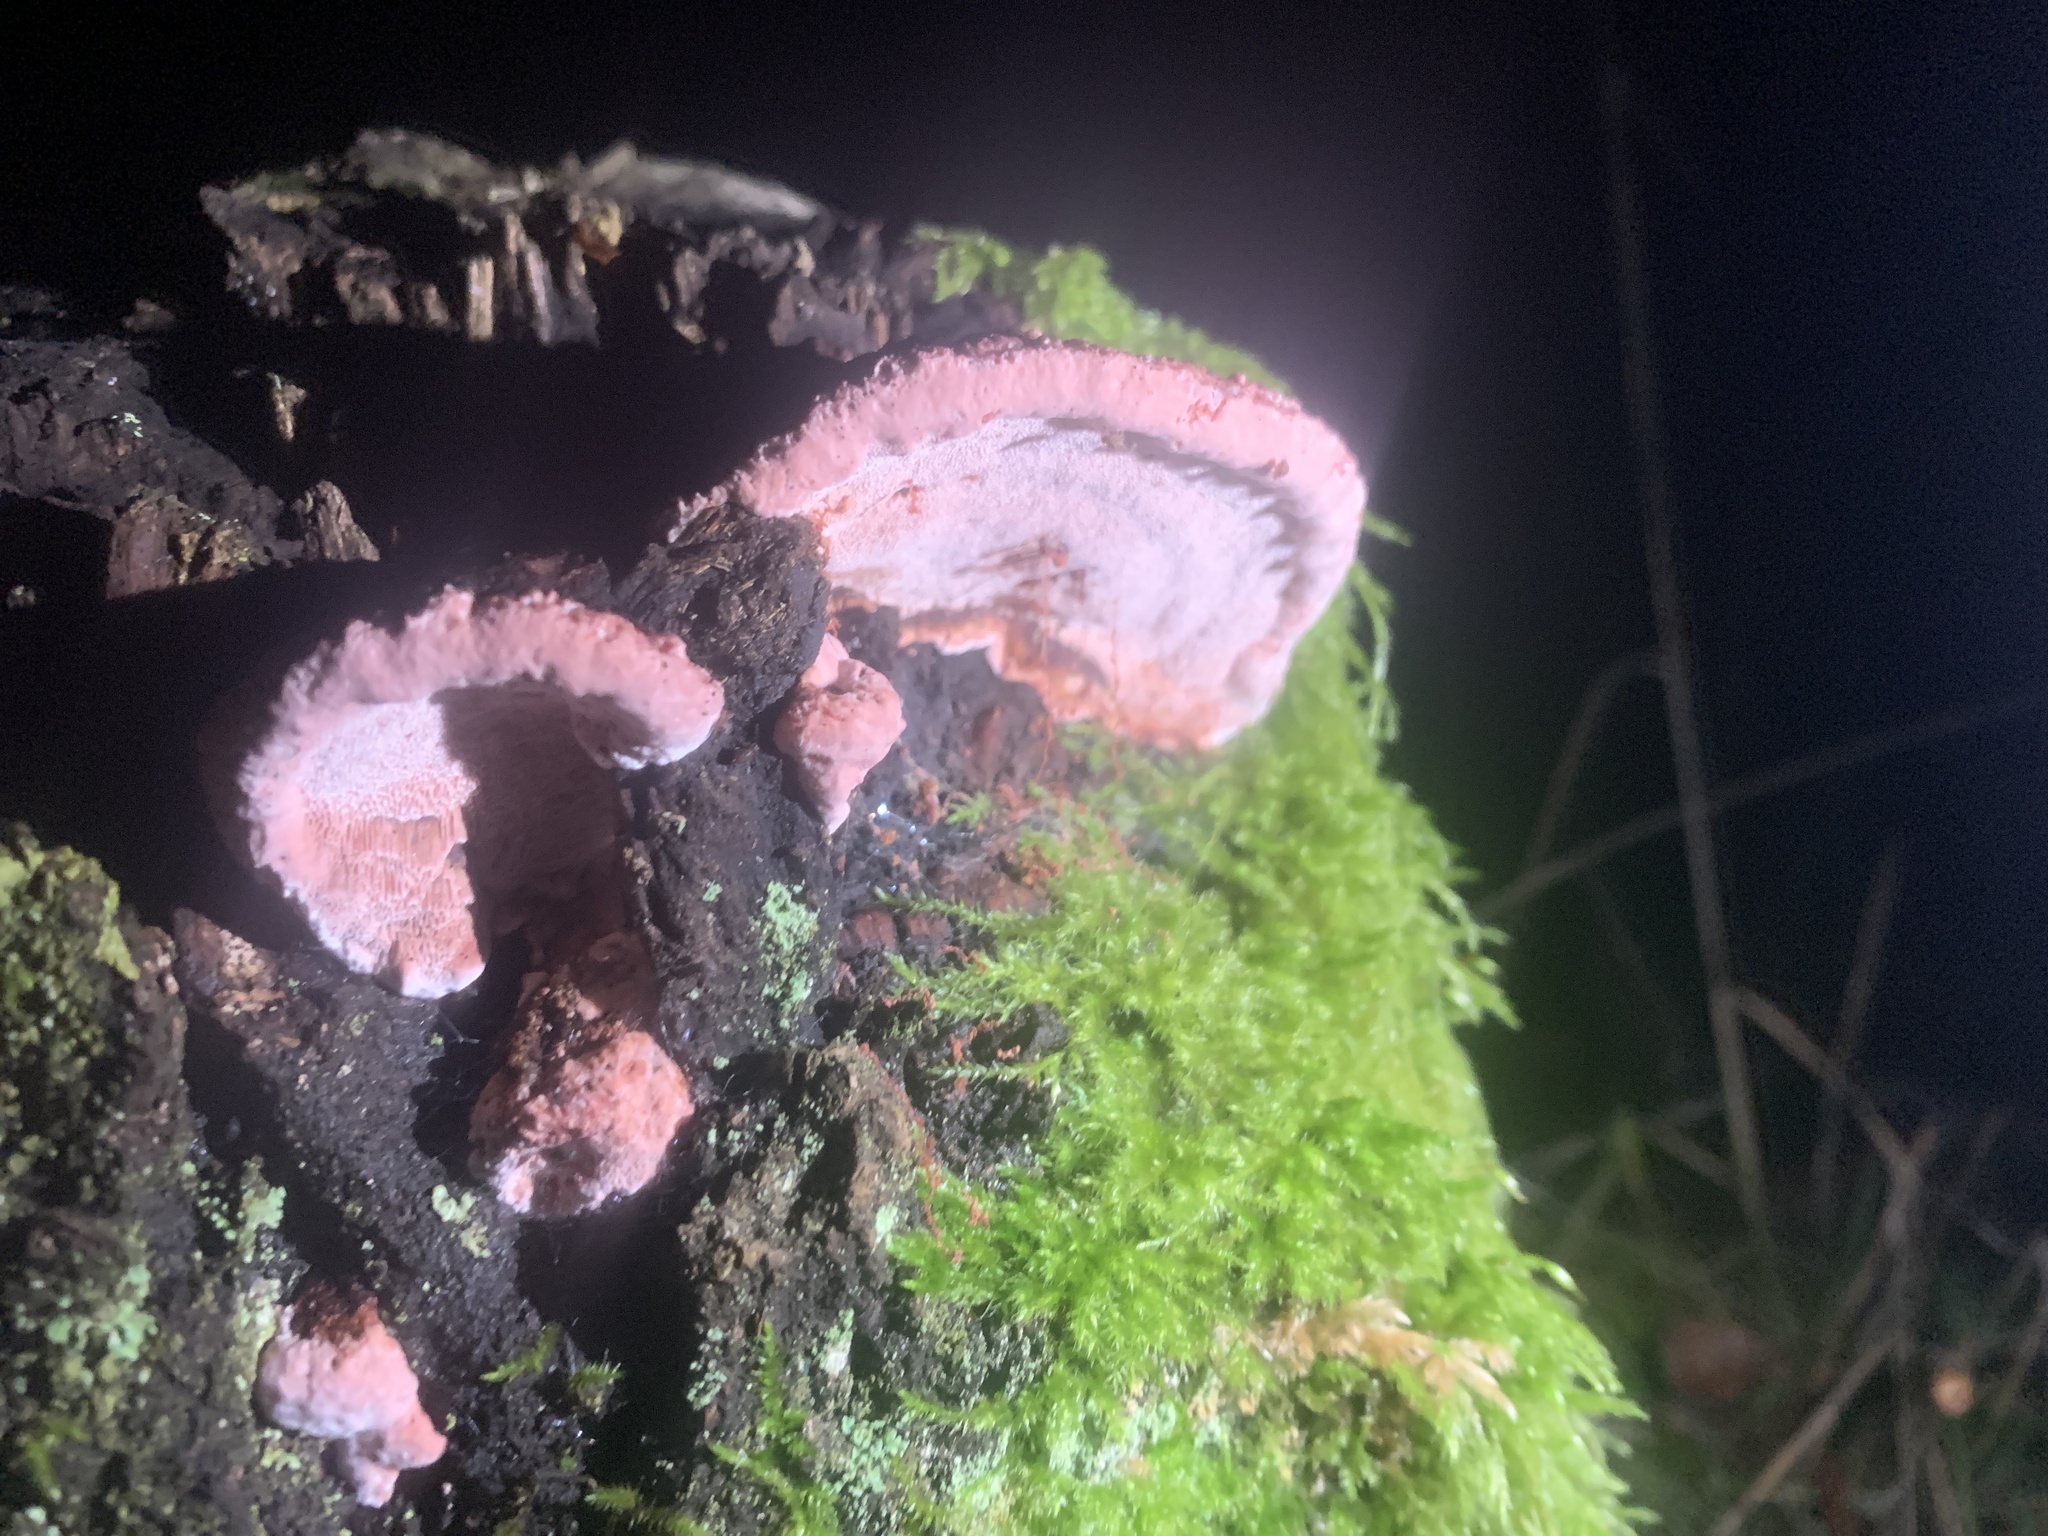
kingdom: Fungi
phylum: Basidiomycota
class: Agaricomycetes
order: Polyporales
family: Fomitopsidaceae
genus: Rhodofomes
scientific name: Rhodofomes cajanderi
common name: Rosy conk
